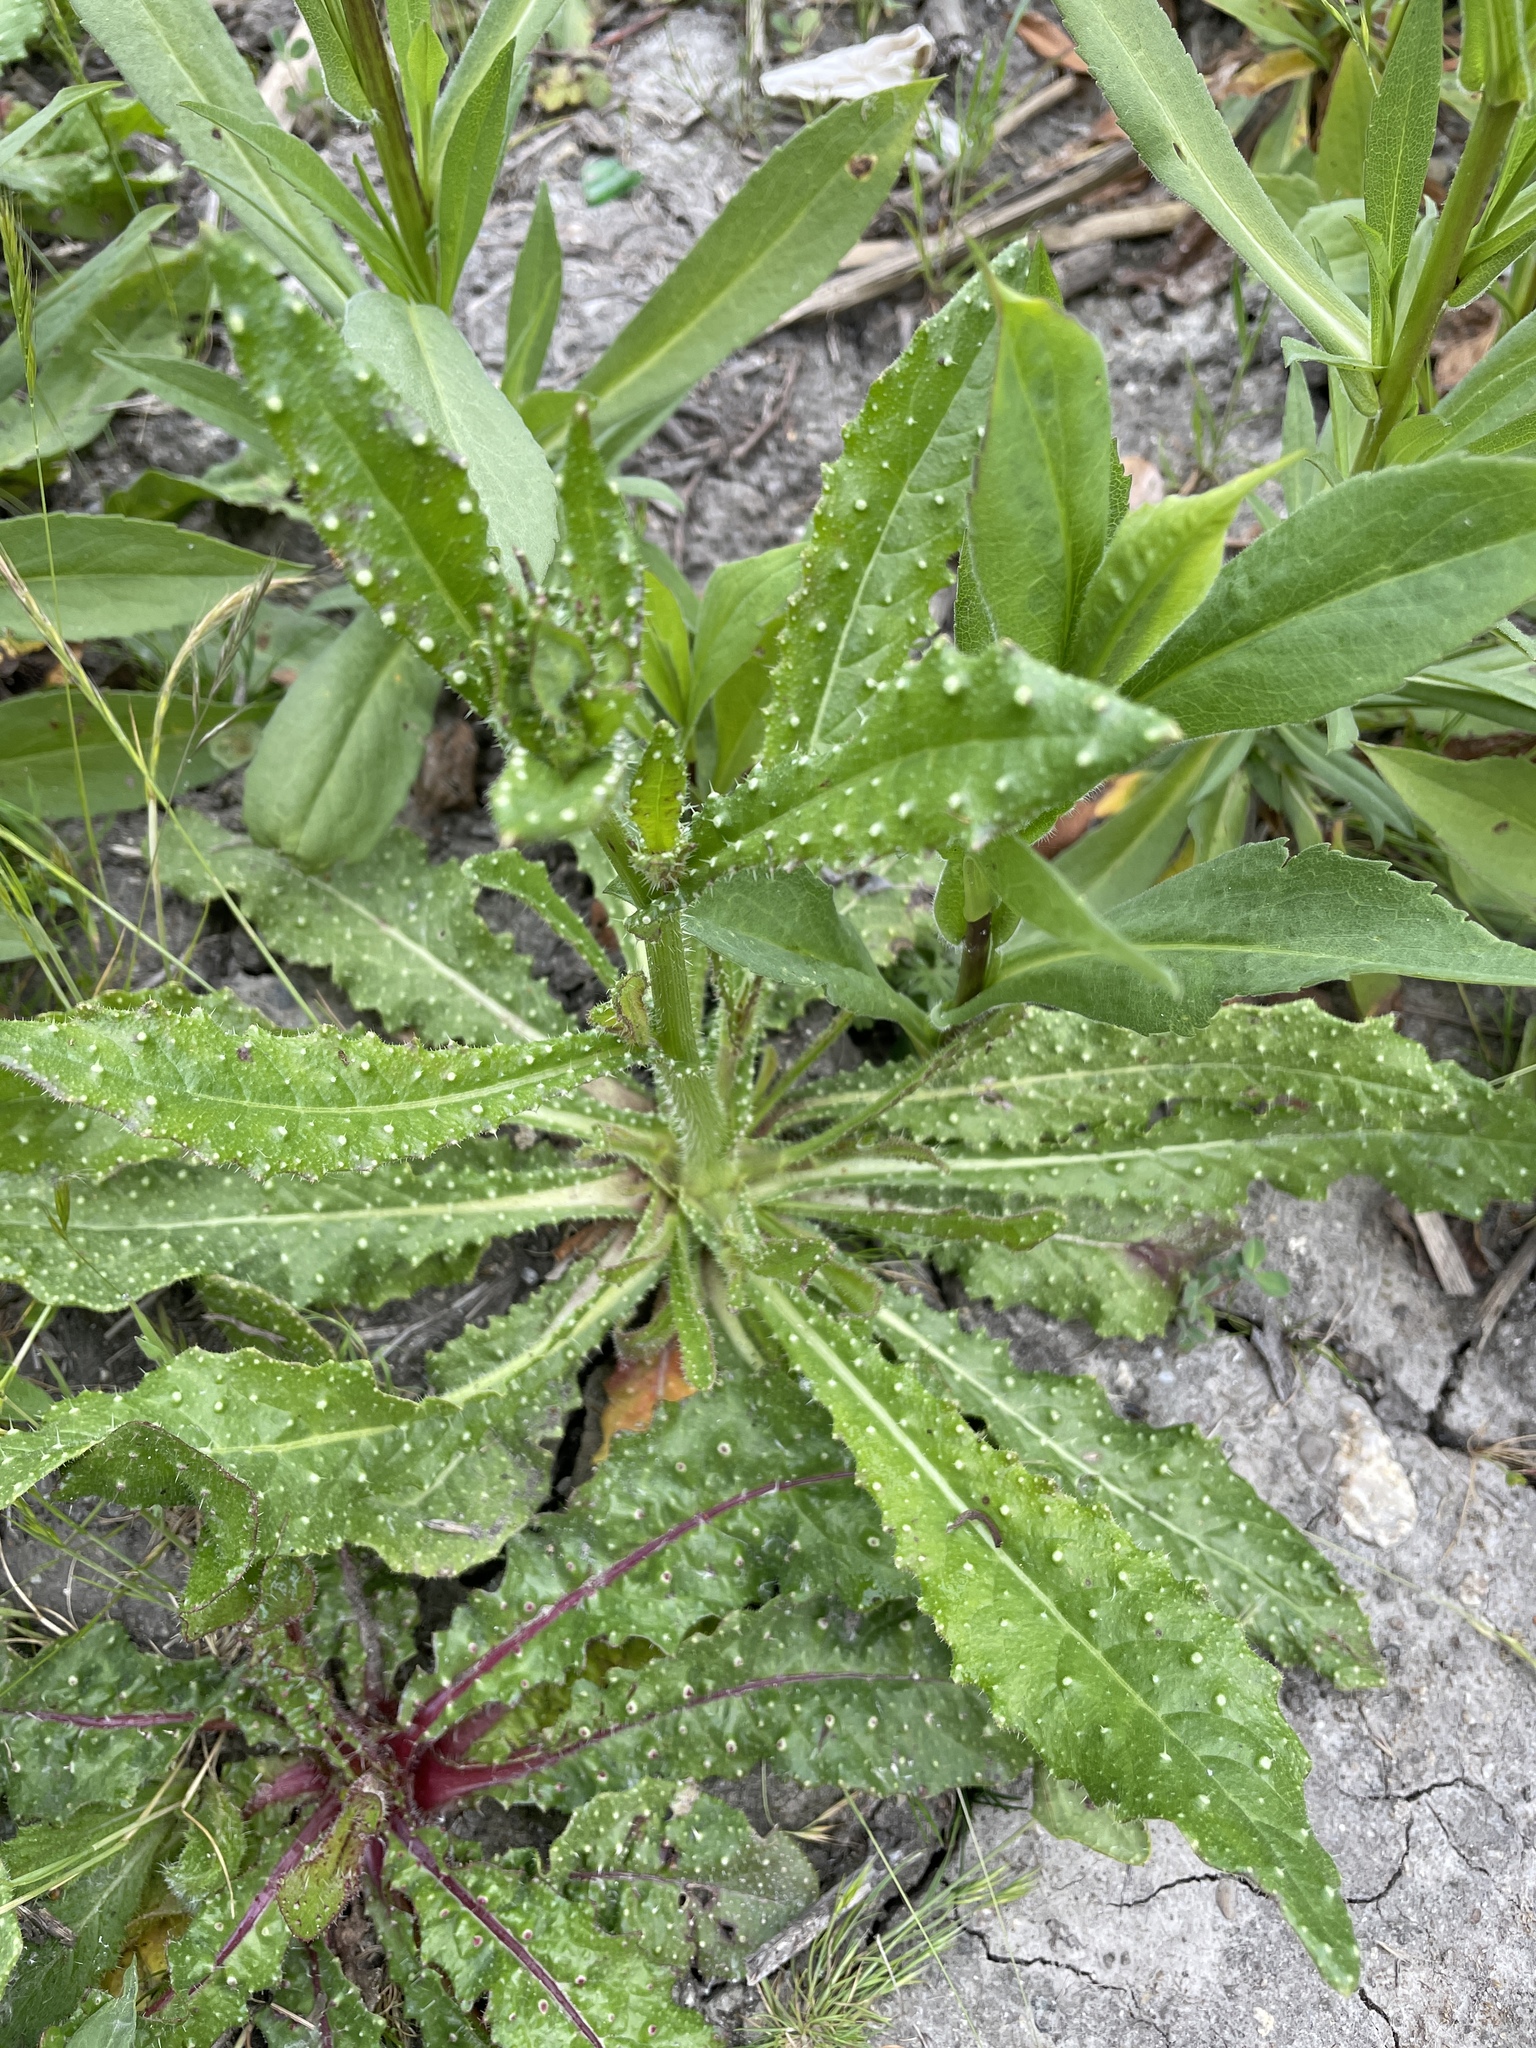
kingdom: Plantae
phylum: Tracheophyta
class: Magnoliopsida
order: Asterales
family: Asteraceae
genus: Helminthotheca
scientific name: Helminthotheca echioides
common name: Ox-tongue
